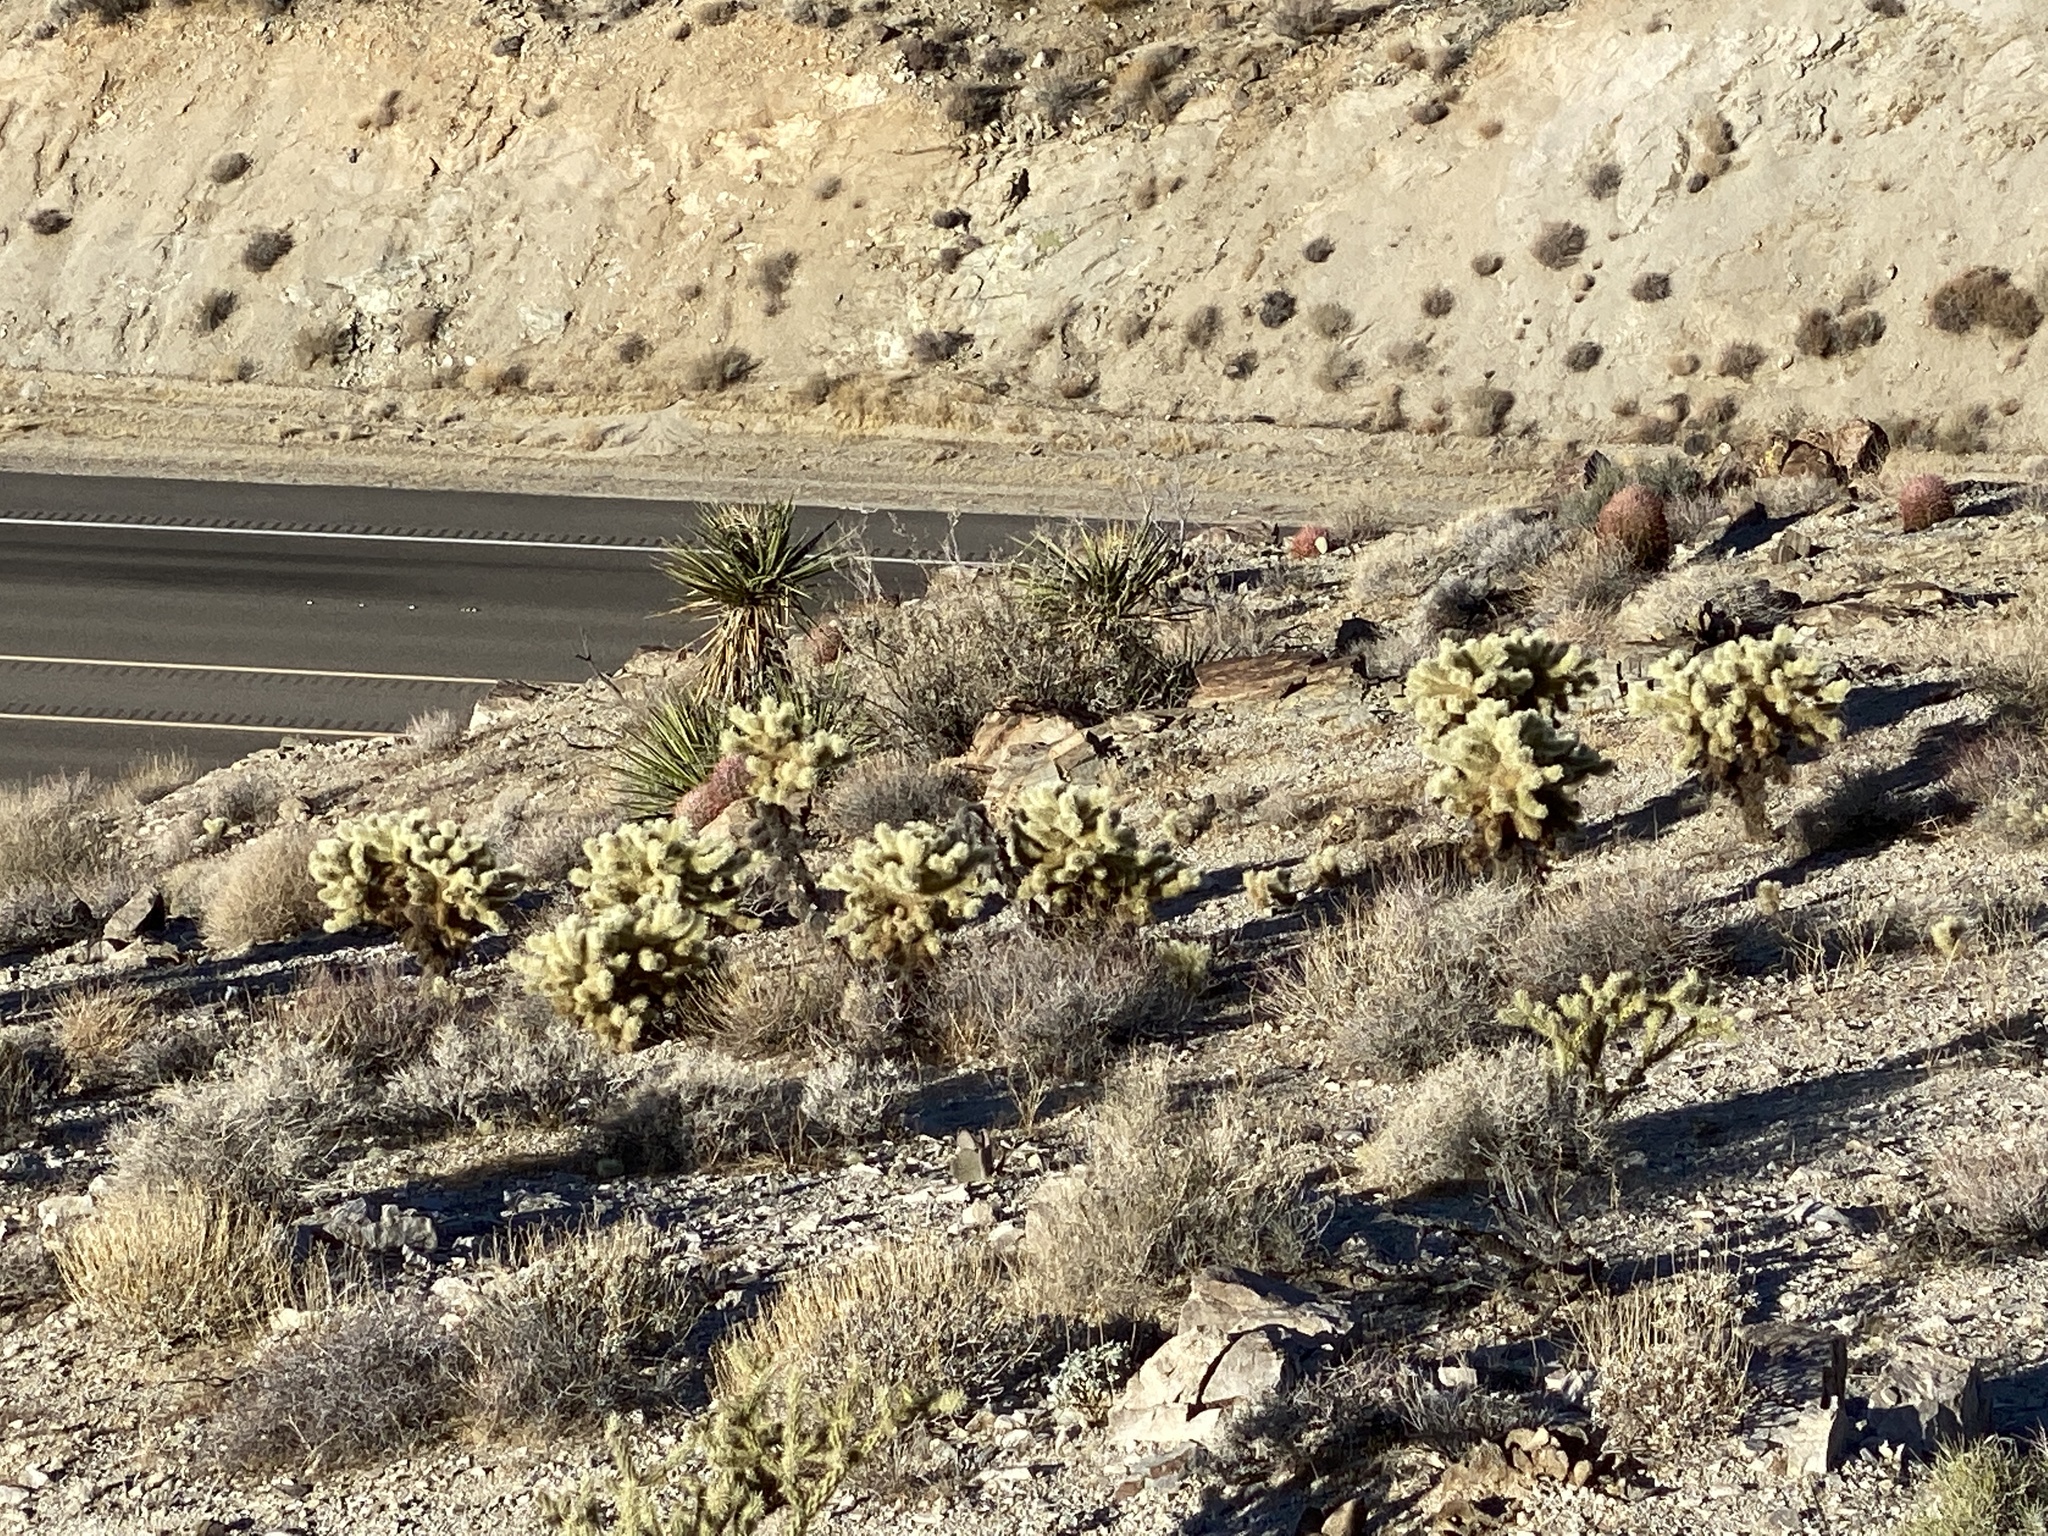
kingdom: Plantae
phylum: Tracheophyta
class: Magnoliopsida
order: Caryophyllales
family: Cactaceae
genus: Cylindropuntia
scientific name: Cylindropuntia fosbergii
